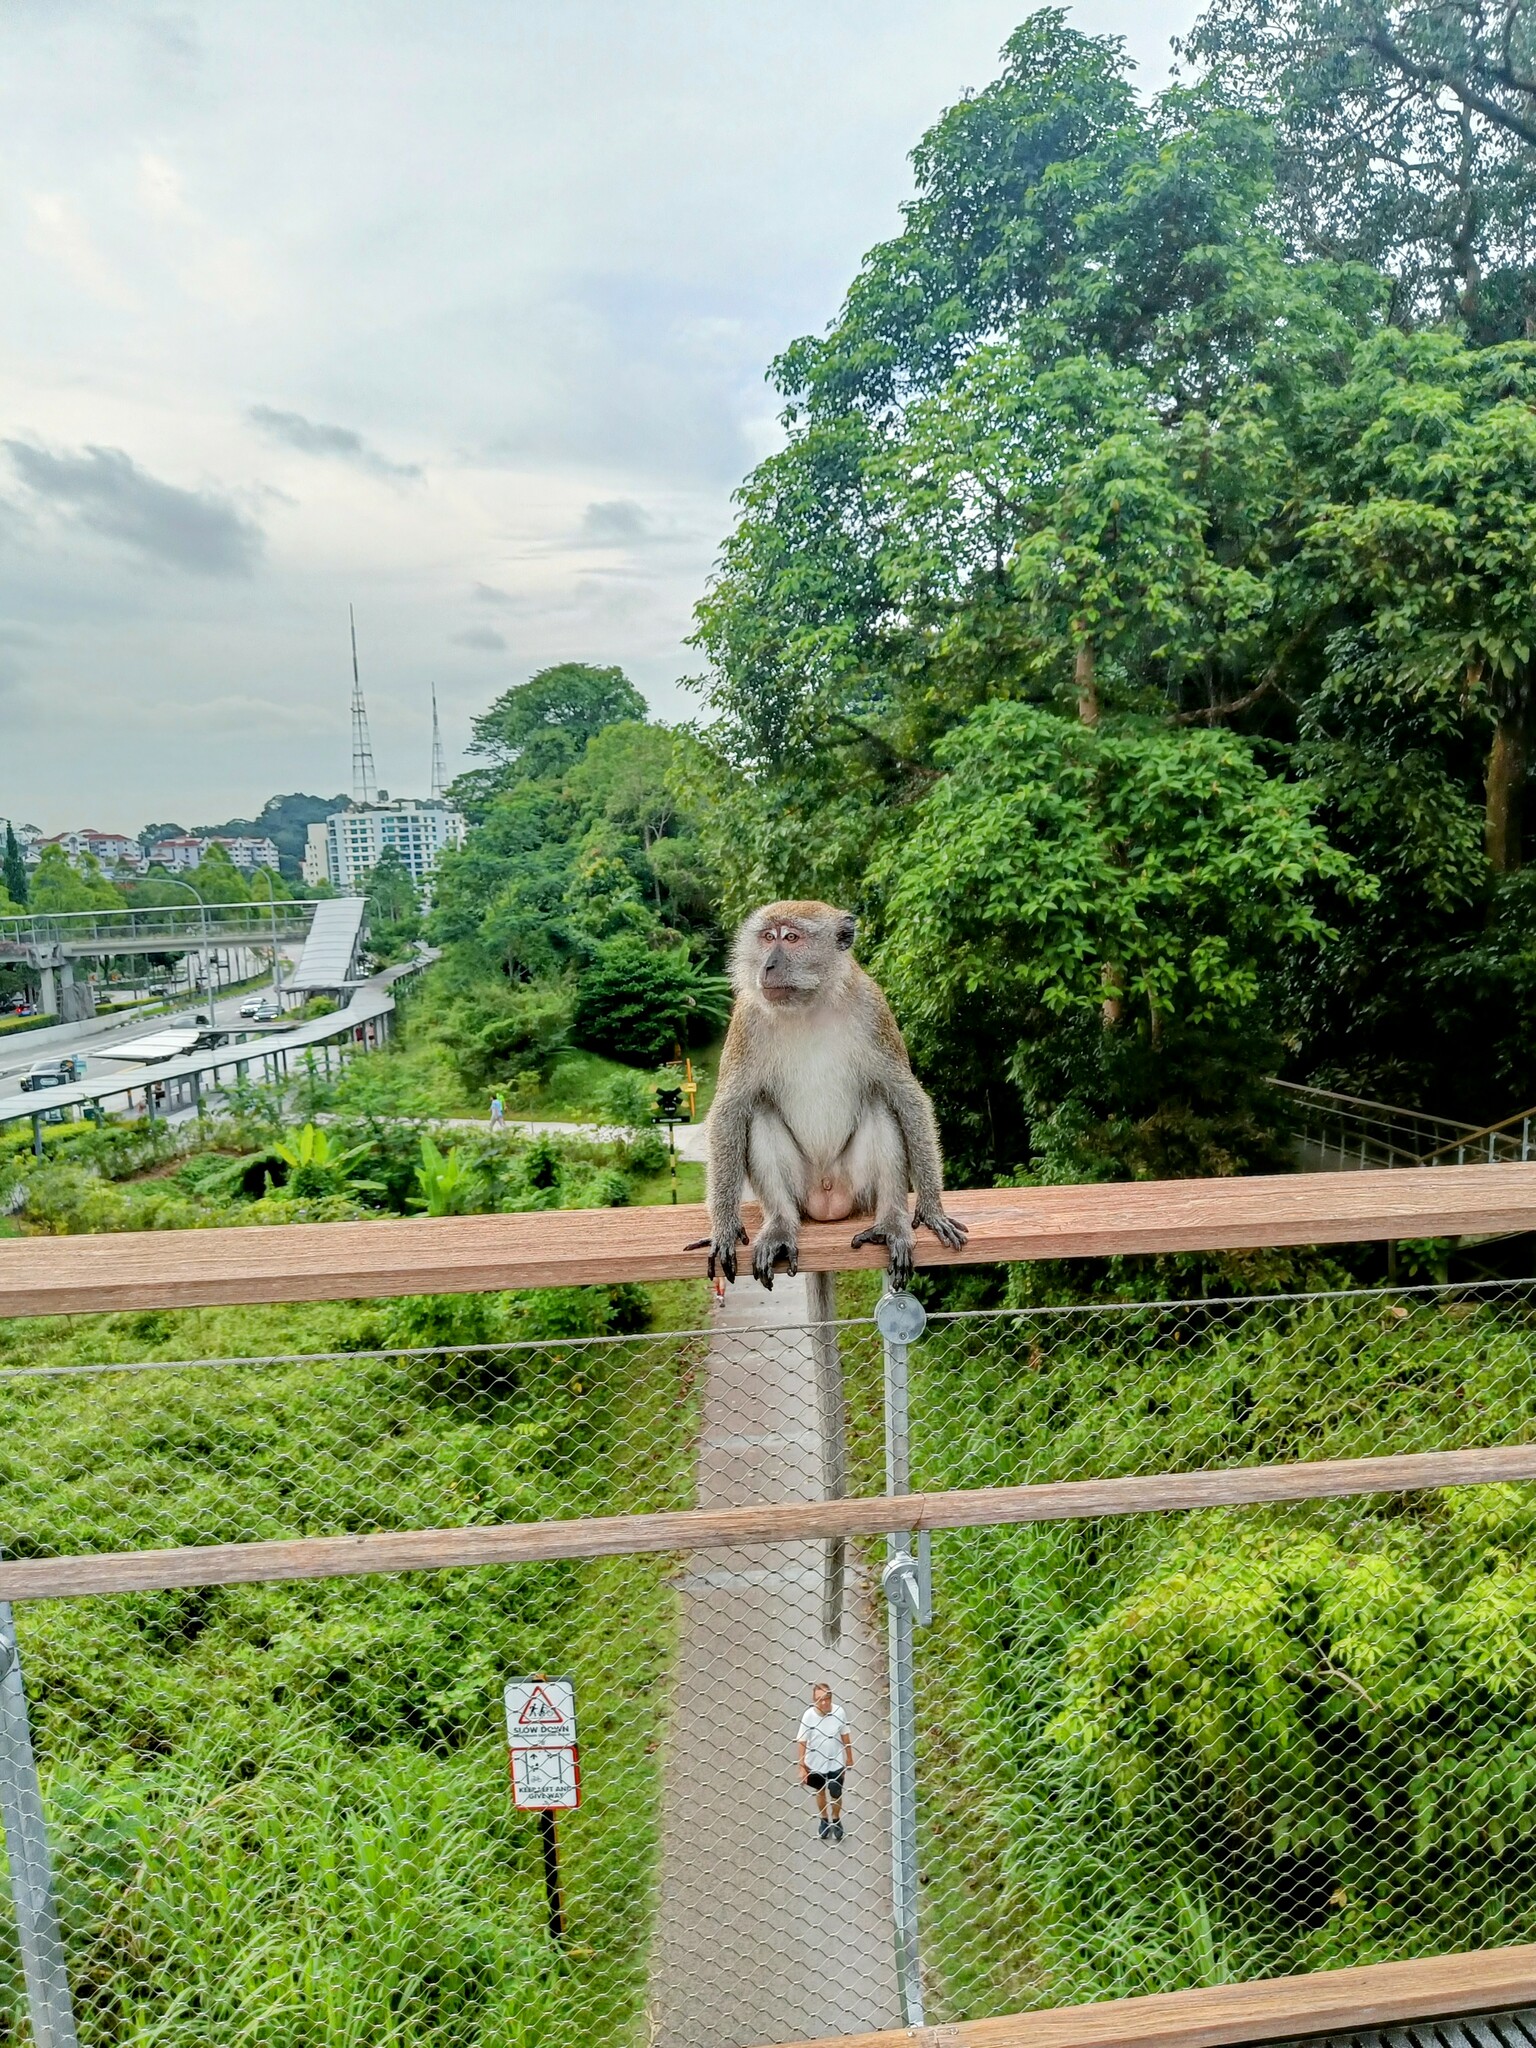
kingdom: Animalia
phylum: Chordata
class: Mammalia
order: Primates
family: Cercopithecidae
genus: Macaca
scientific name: Macaca fascicularis
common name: Crab-eating macaque
